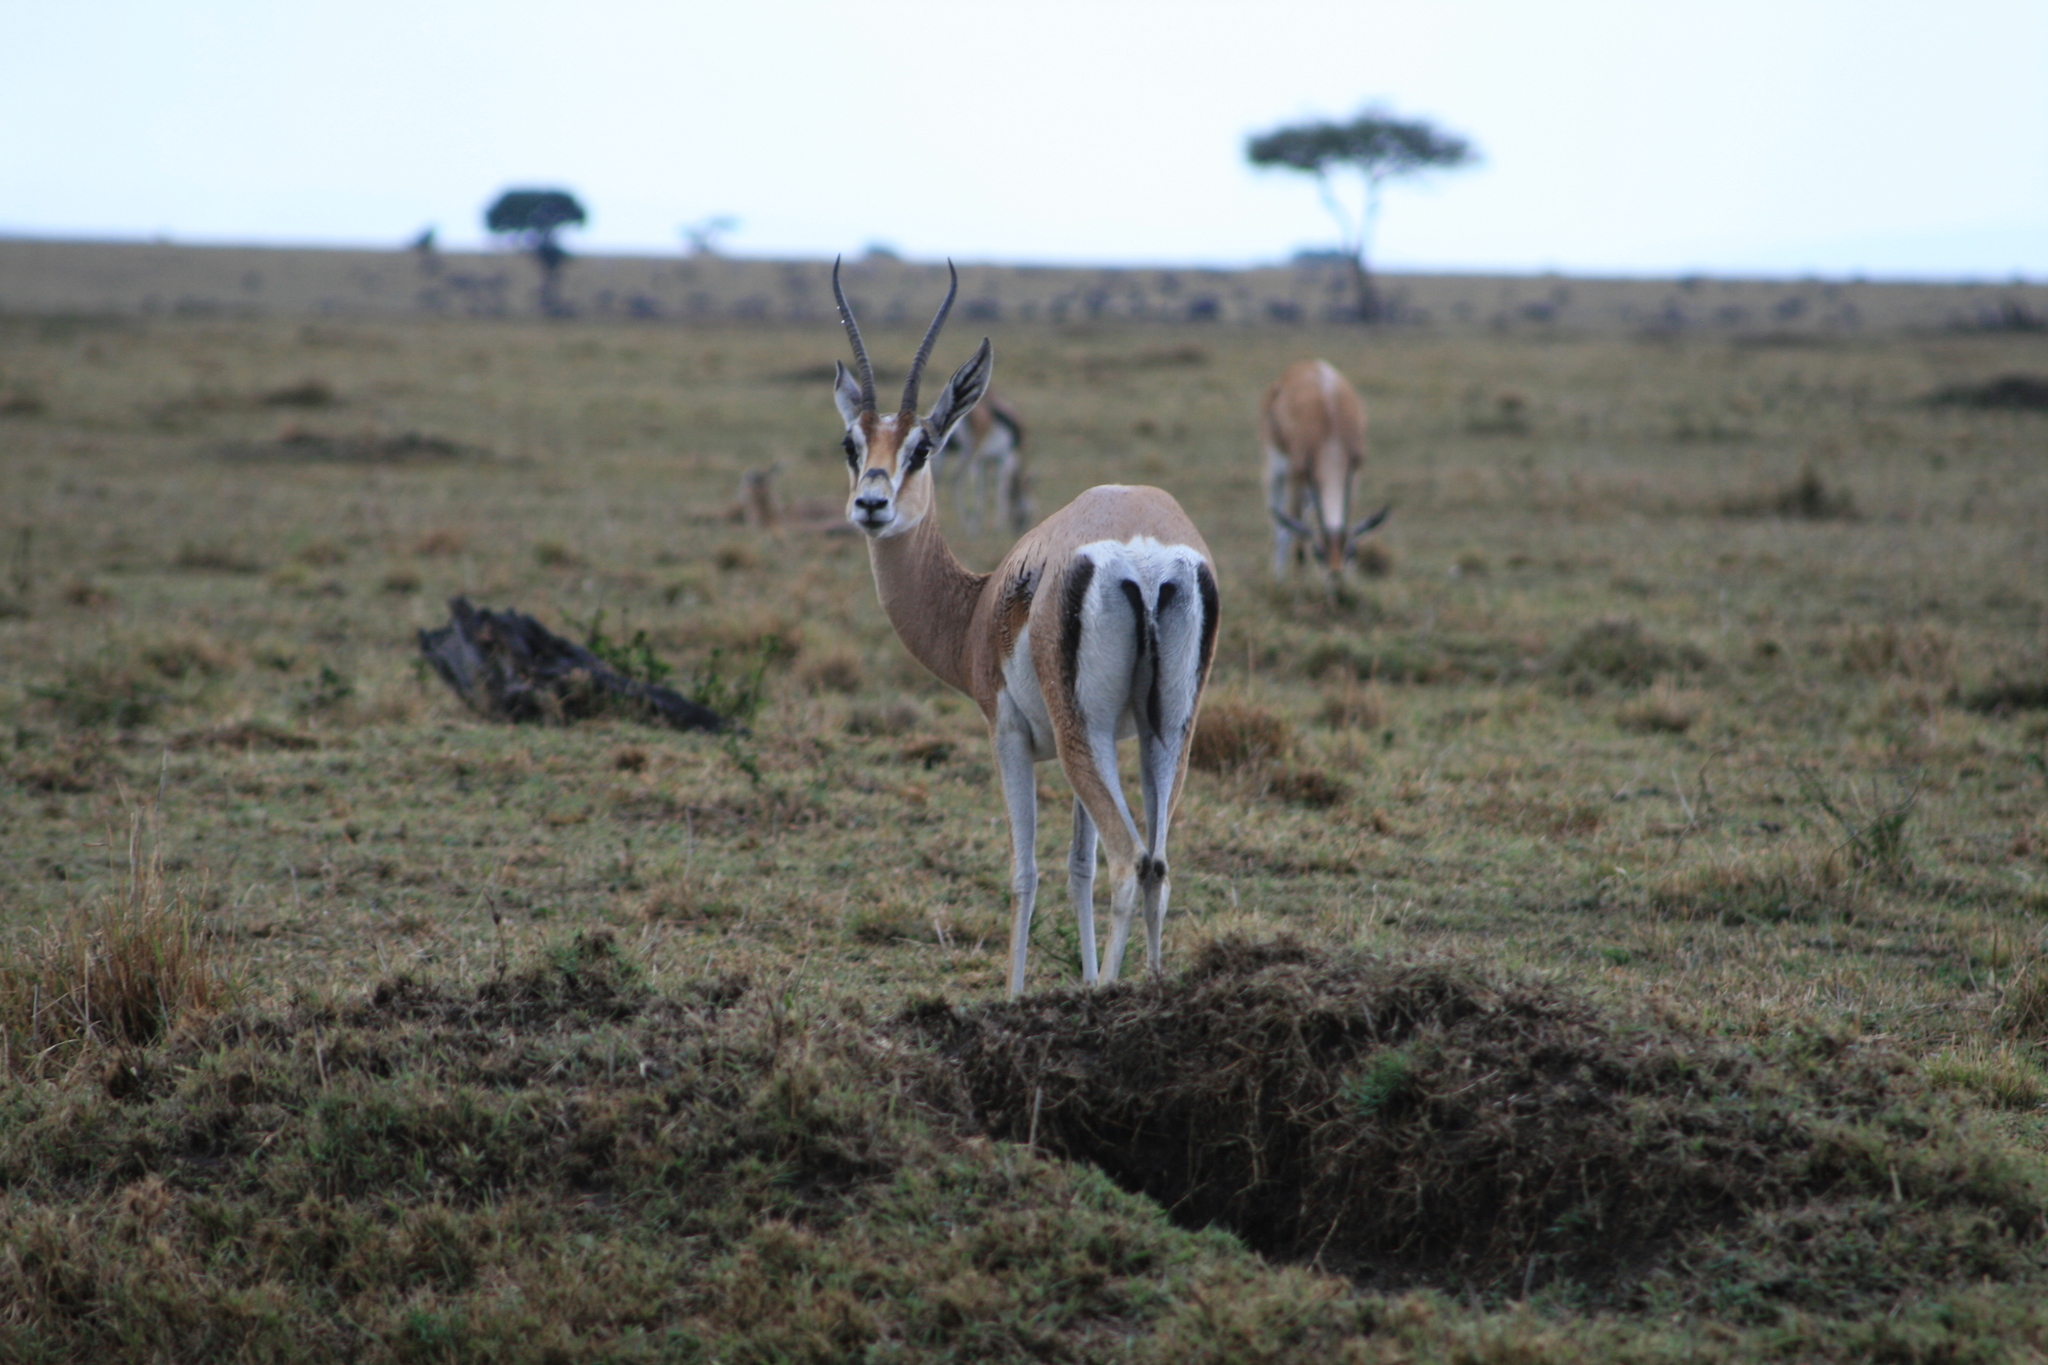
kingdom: Animalia
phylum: Chordata
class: Mammalia
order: Artiodactyla
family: Bovidae
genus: Nanger
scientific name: Nanger granti
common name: Grant's gazelle
